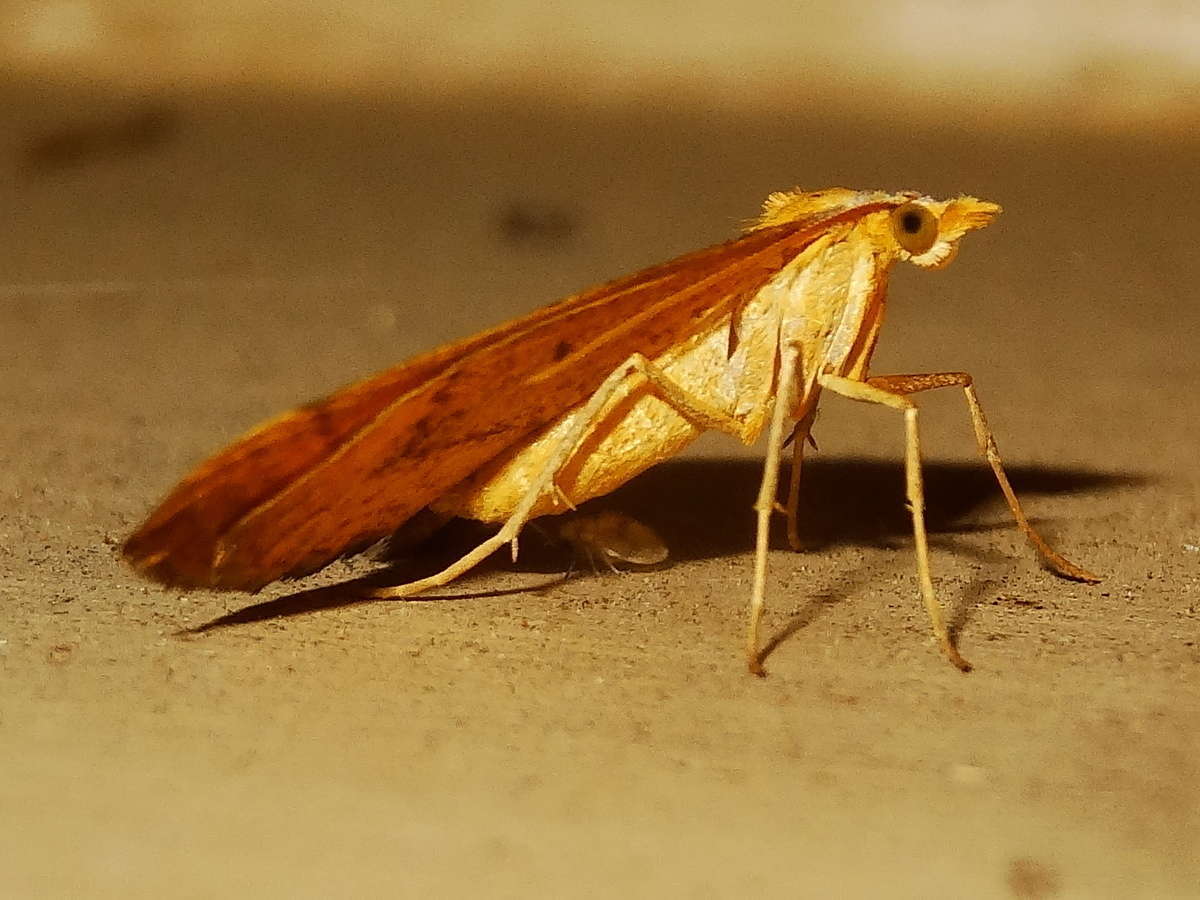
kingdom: Animalia
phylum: Arthropoda
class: Insecta
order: Lepidoptera
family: Geometridae
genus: Anachloris
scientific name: Anachloris subochraria
